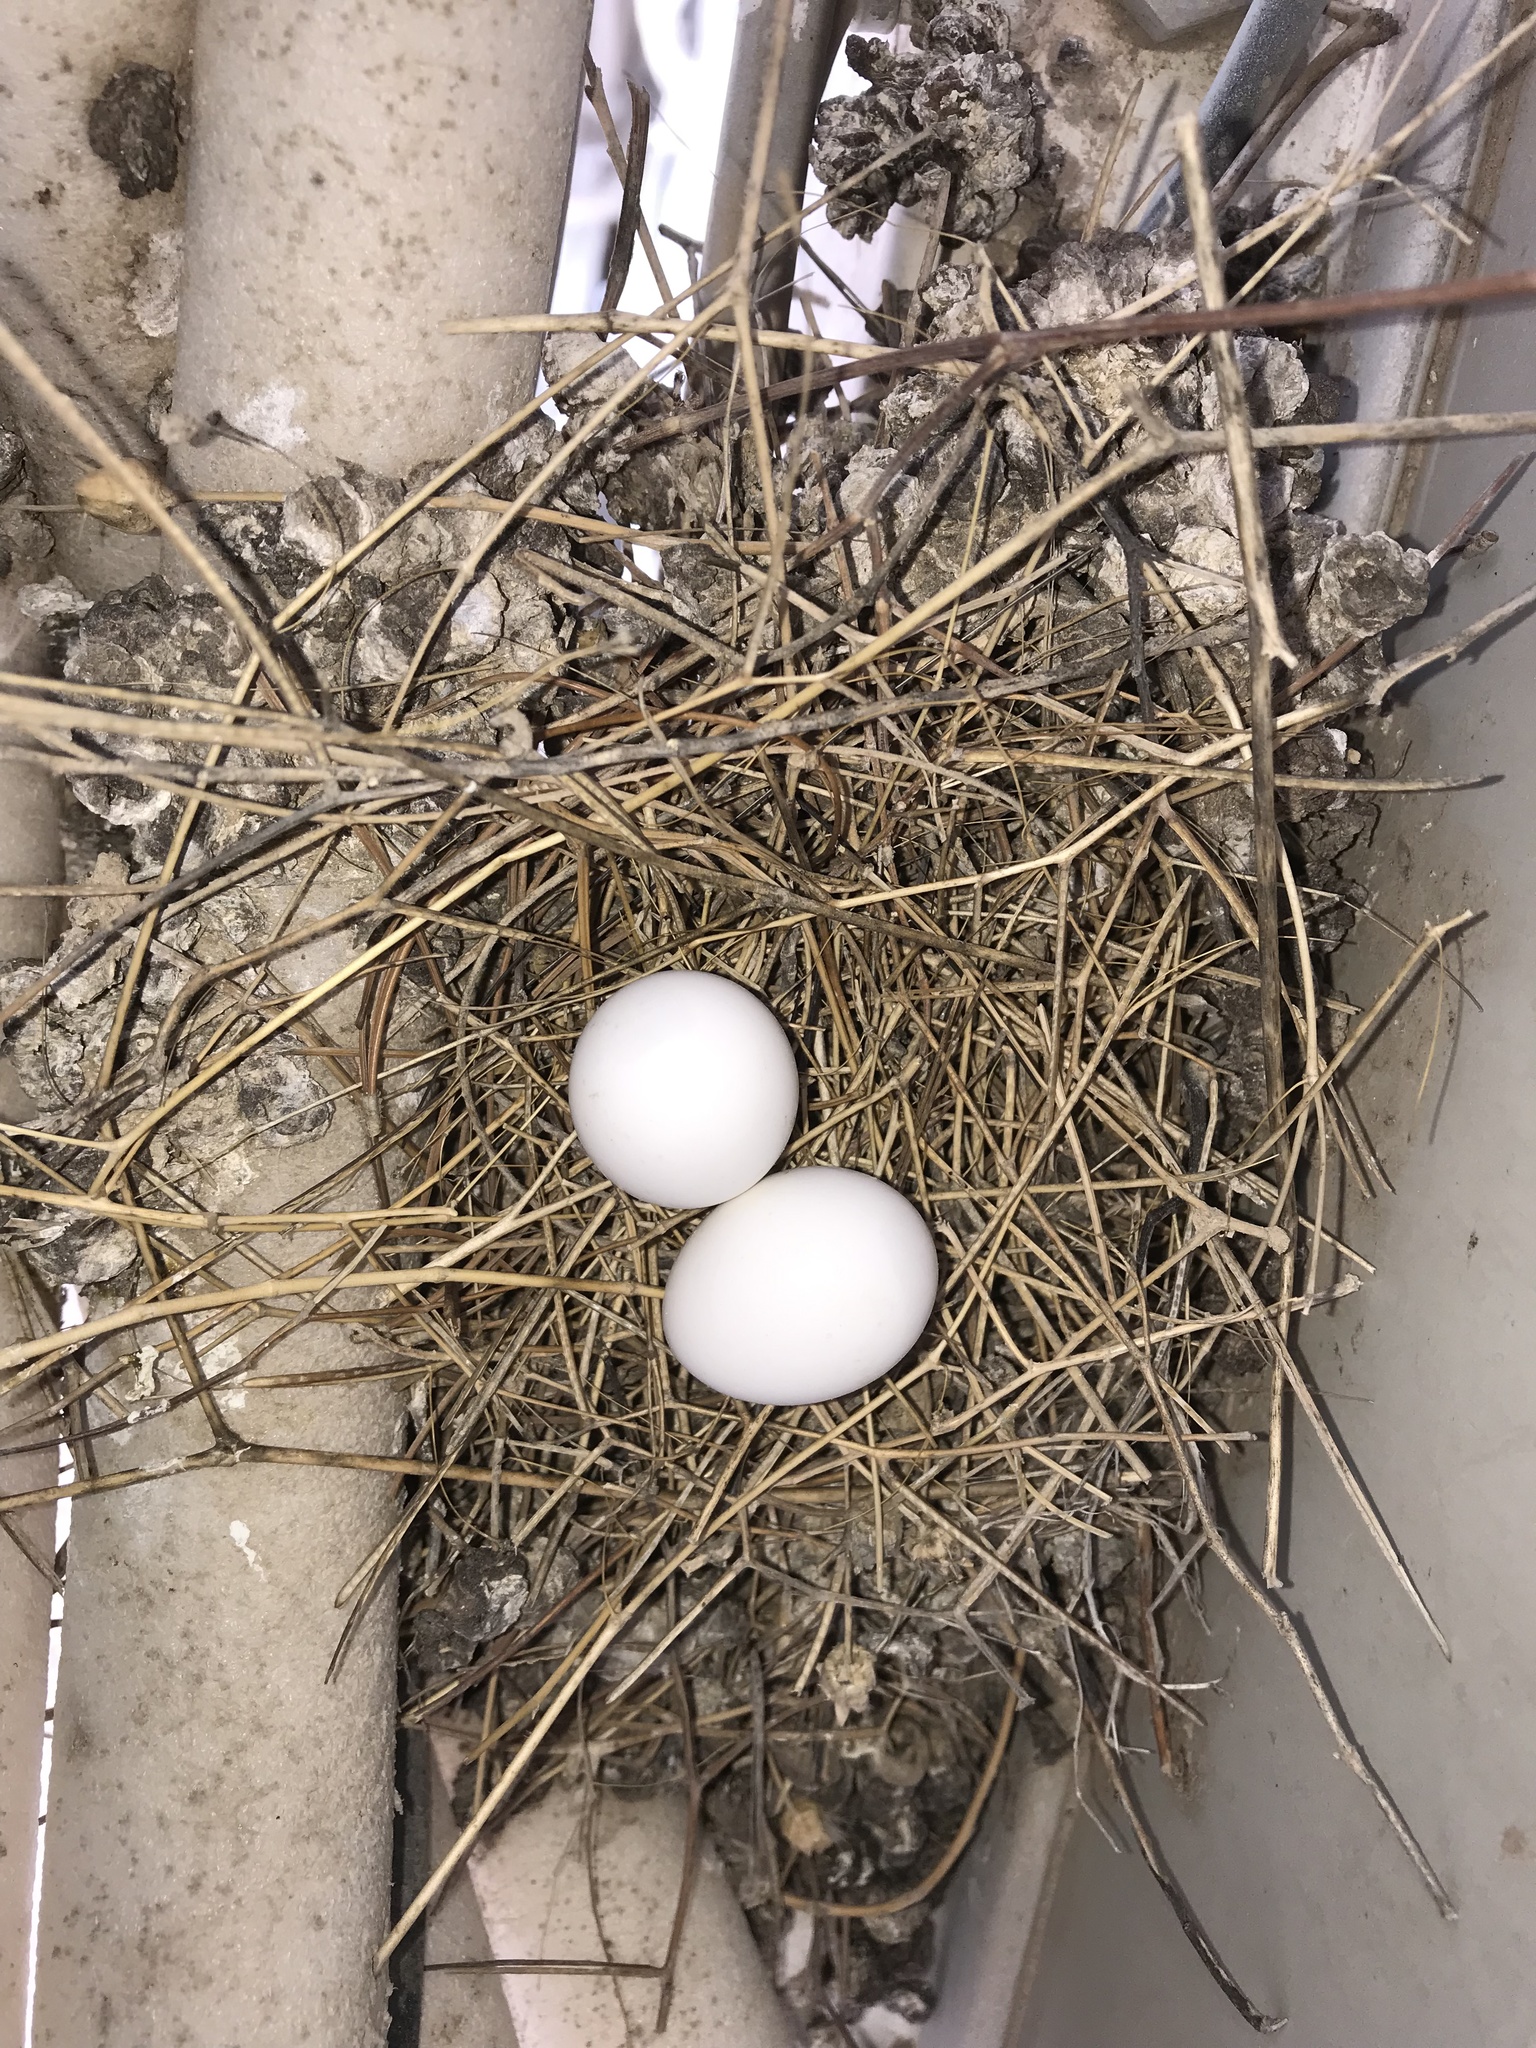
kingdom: Animalia
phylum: Chordata
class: Aves
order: Columbiformes
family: Columbidae
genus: Spilopelia
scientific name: Spilopelia senegalensis
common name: Laughing dove
